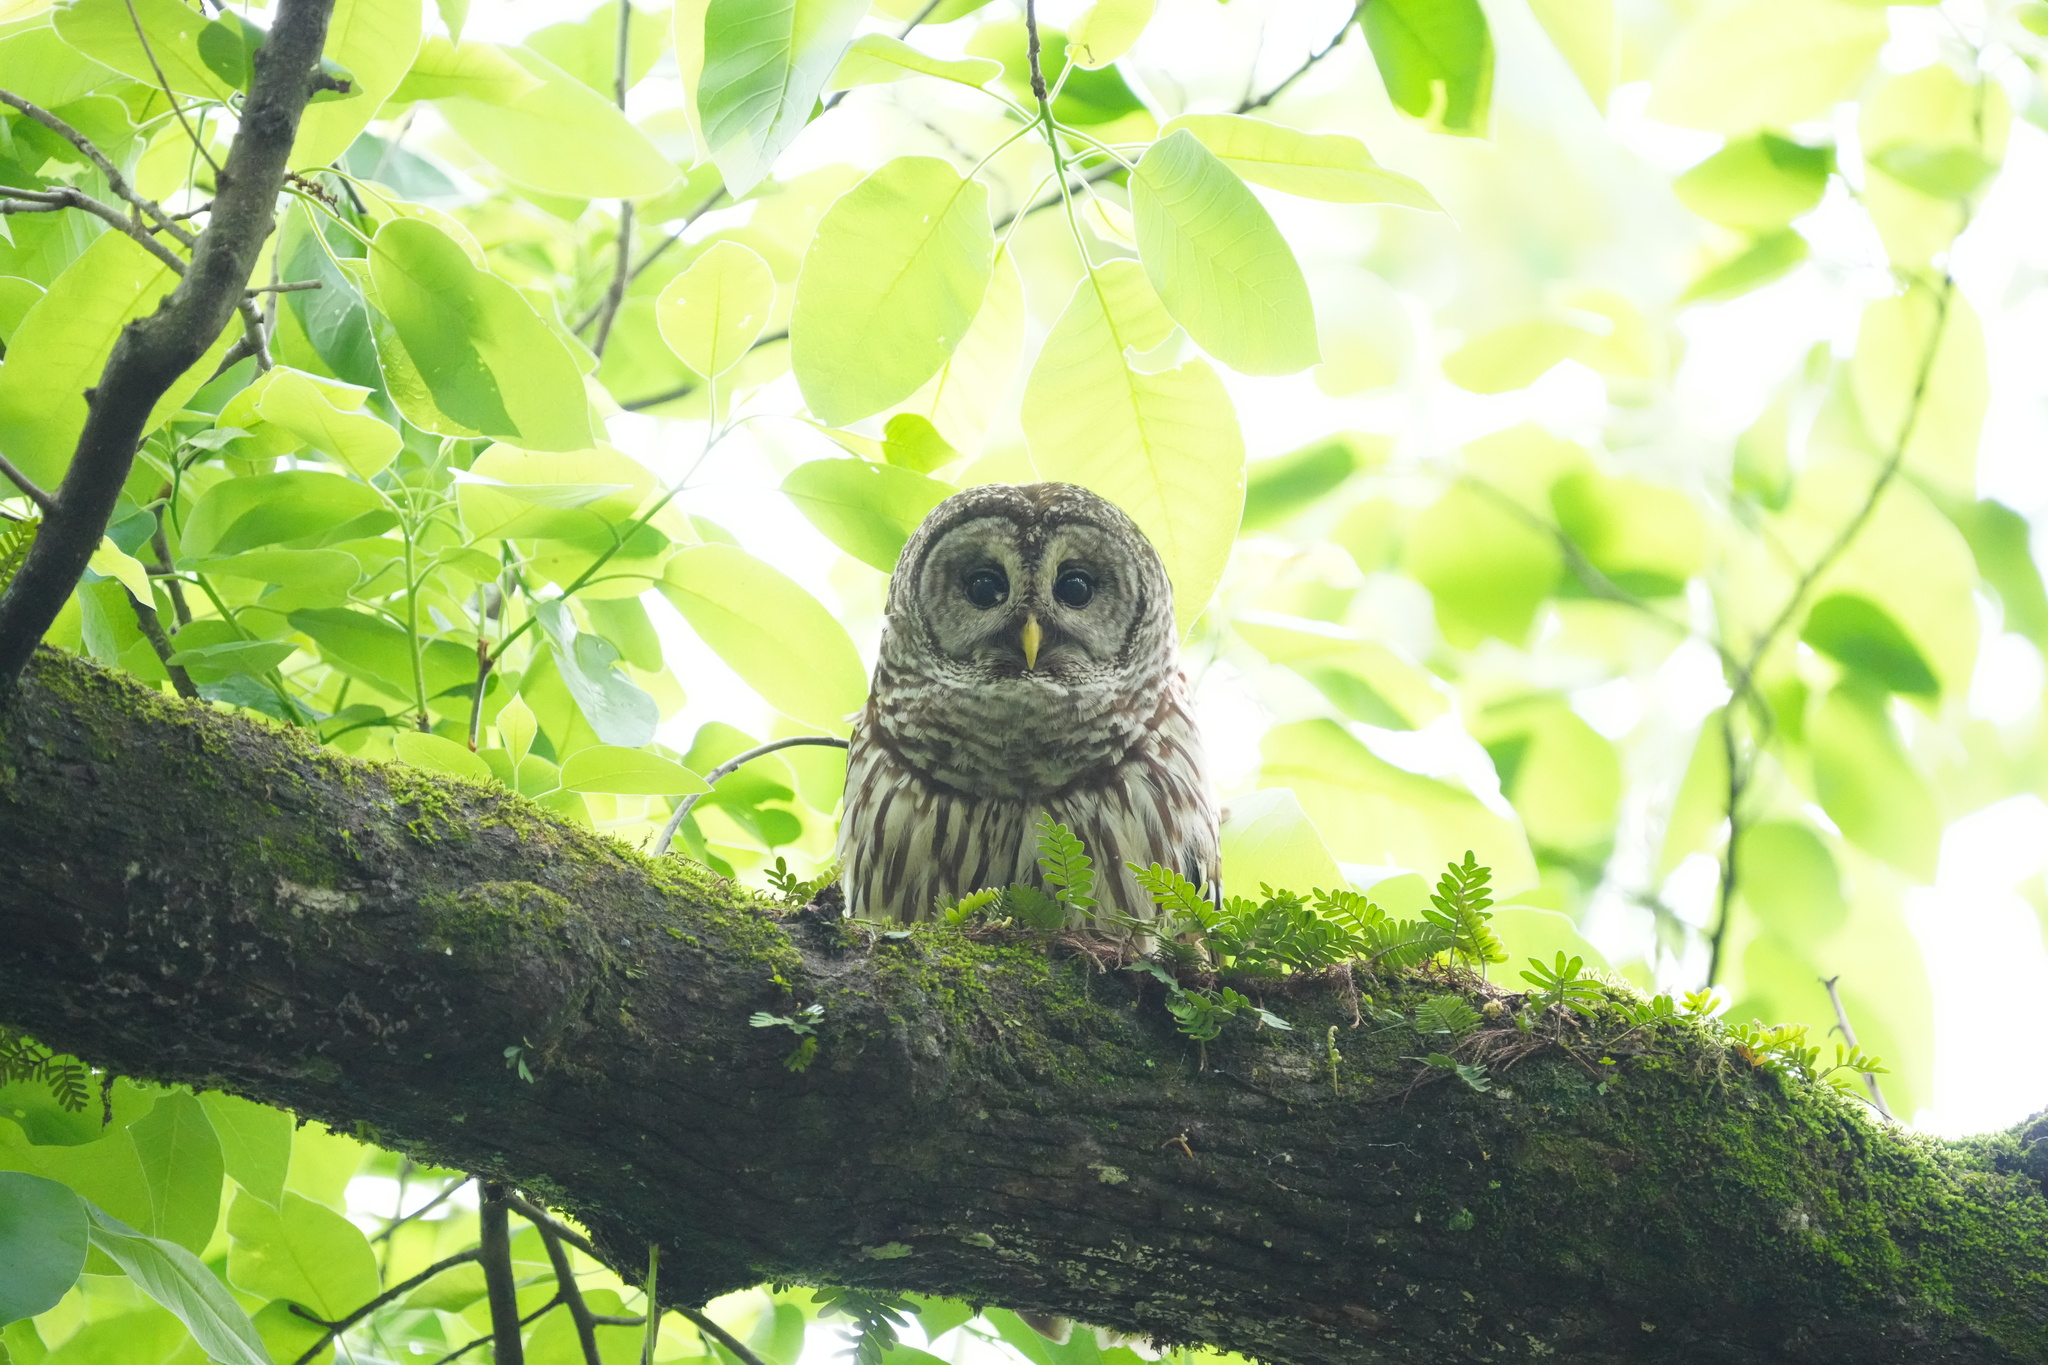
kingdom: Animalia
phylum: Chordata
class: Aves
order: Strigiformes
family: Strigidae
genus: Strix
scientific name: Strix varia
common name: Barred owl
